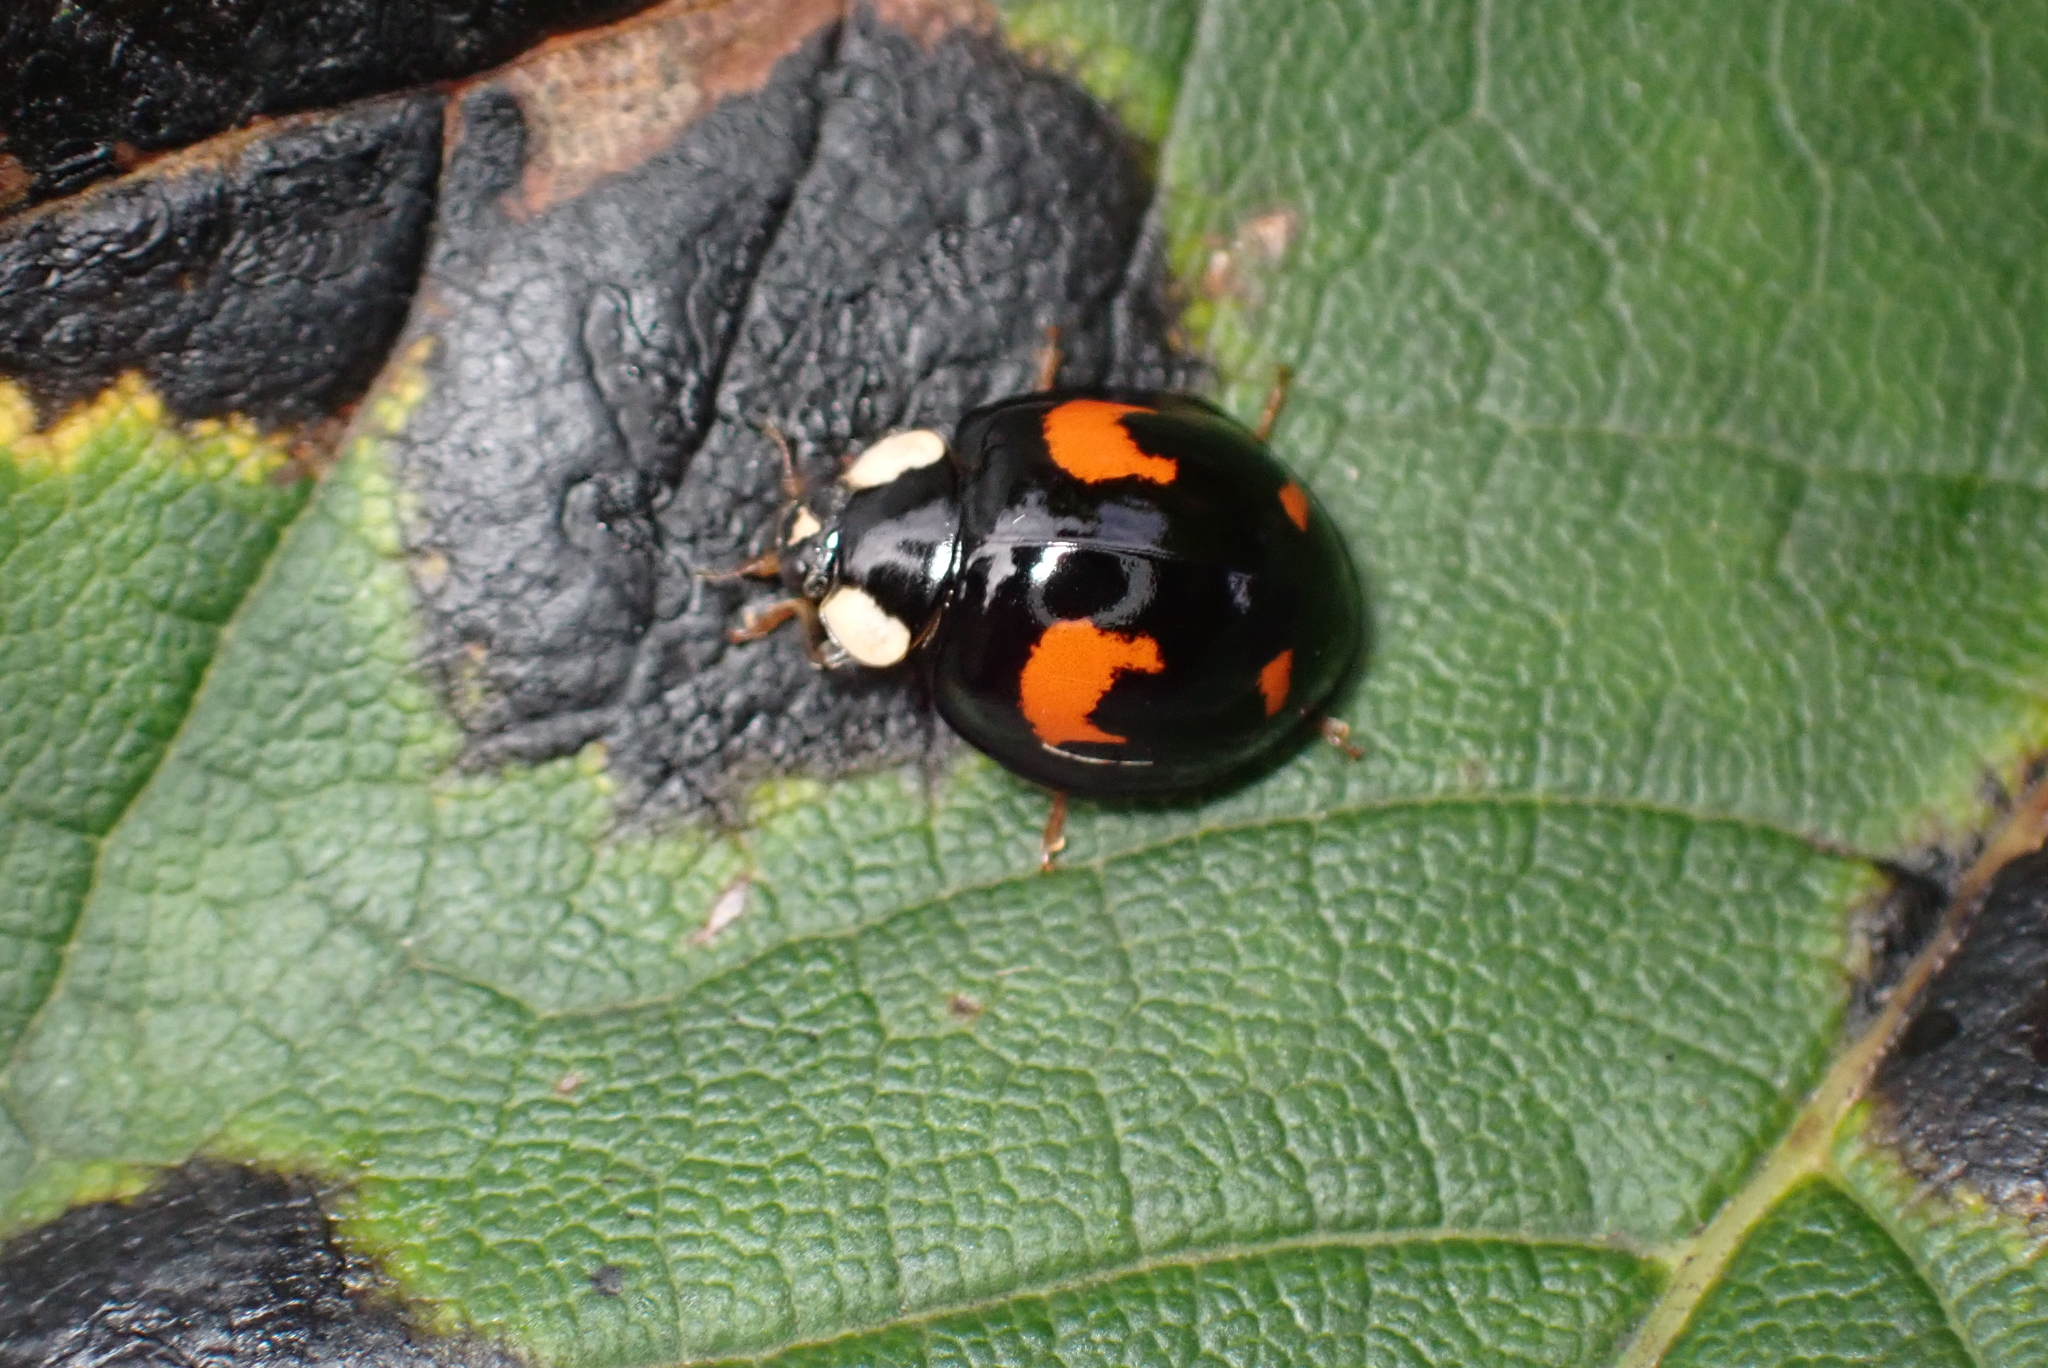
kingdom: Animalia
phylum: Arthropoda
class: Insecta
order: Coleoptera
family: Coccinellidae
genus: Harmonia
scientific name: Harmonia axyridis
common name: Harlequin ladybird
